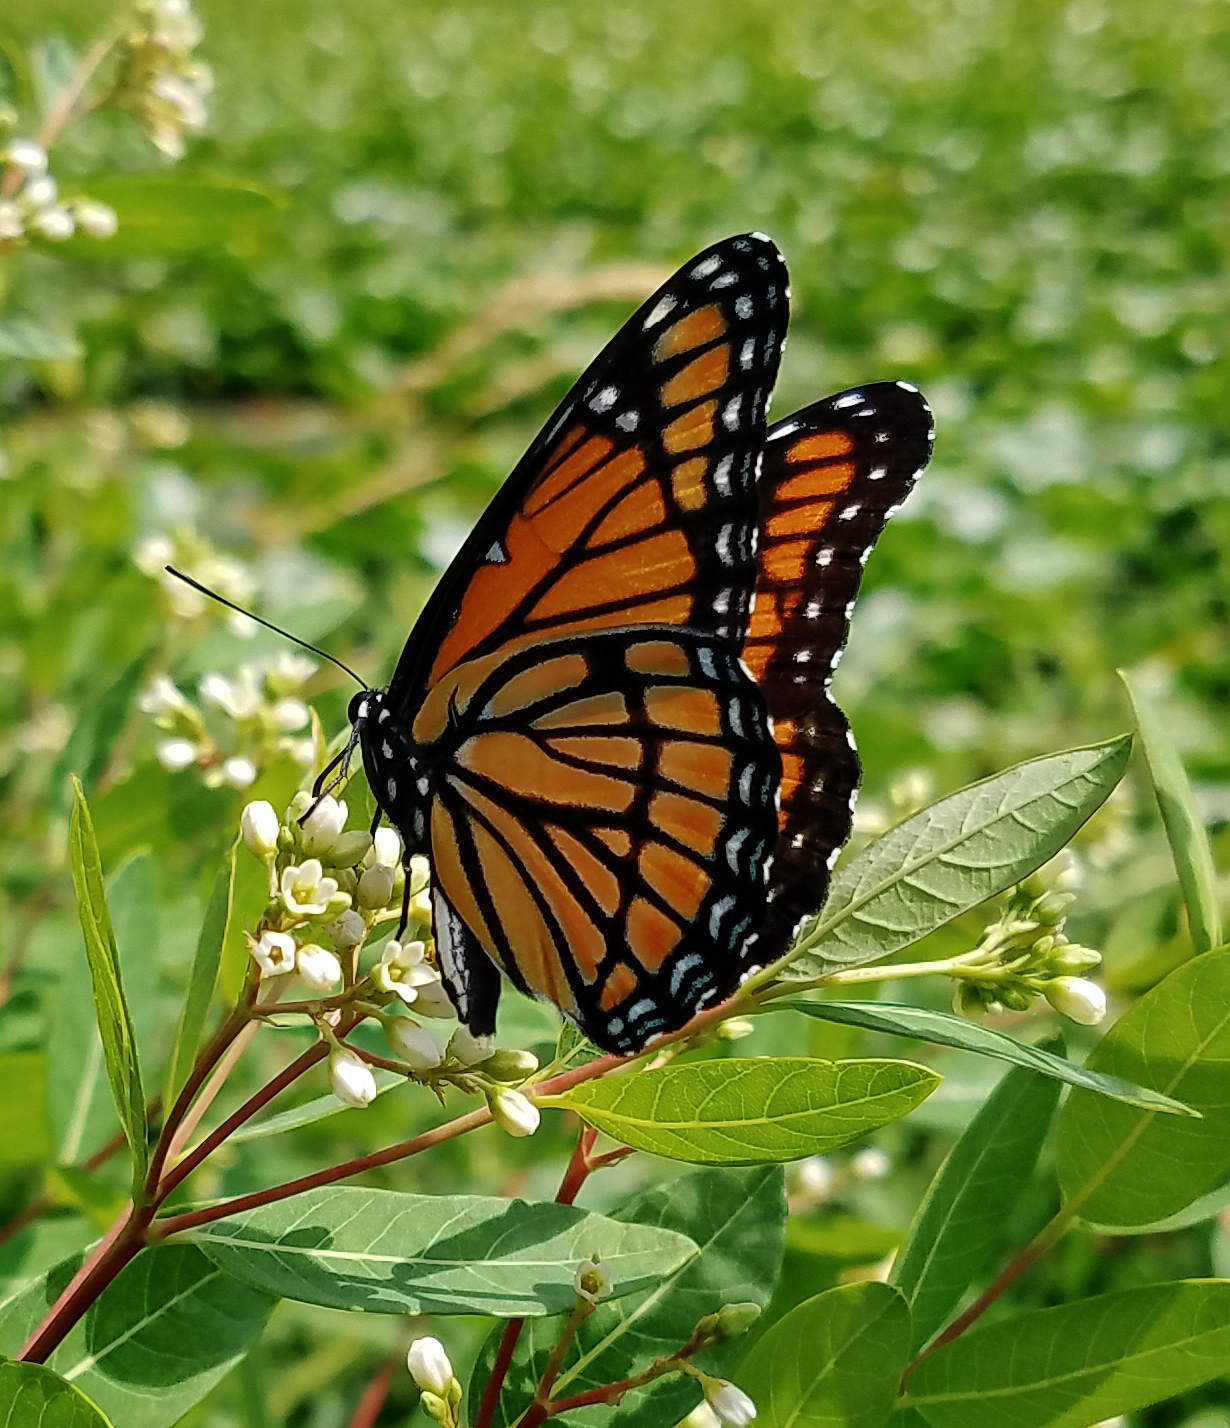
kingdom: Animalia
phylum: Arthropoda
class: Insecta
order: Lepidoptera
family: Nymphalidae
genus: Limenitis
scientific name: Limenitis archippus
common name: Viceroy
